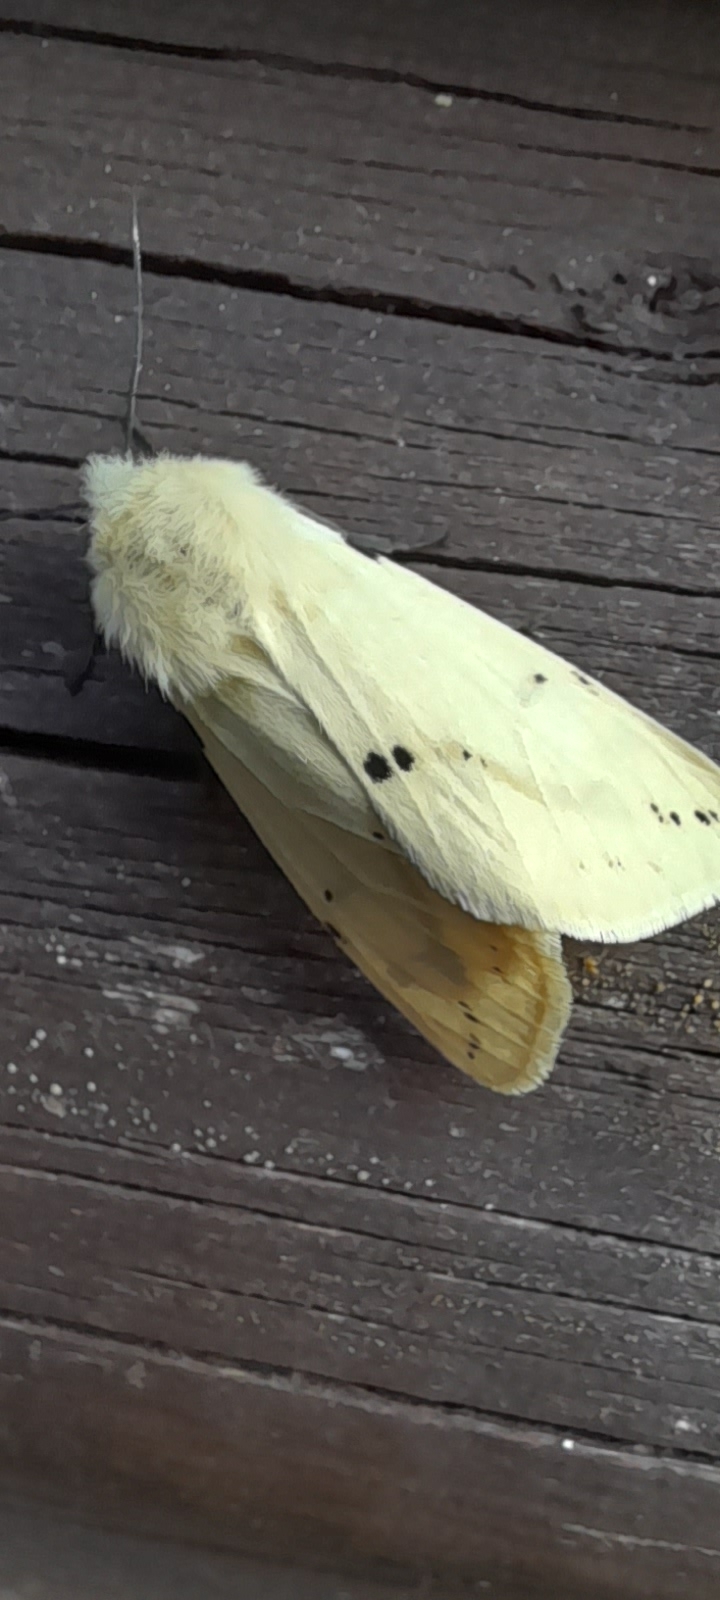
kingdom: Animalia
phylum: Arthropoda
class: Insecta
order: Lepidoptera
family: Erebidae
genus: Spilarctia
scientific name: Spilarctia lutea
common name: Buff ermine
